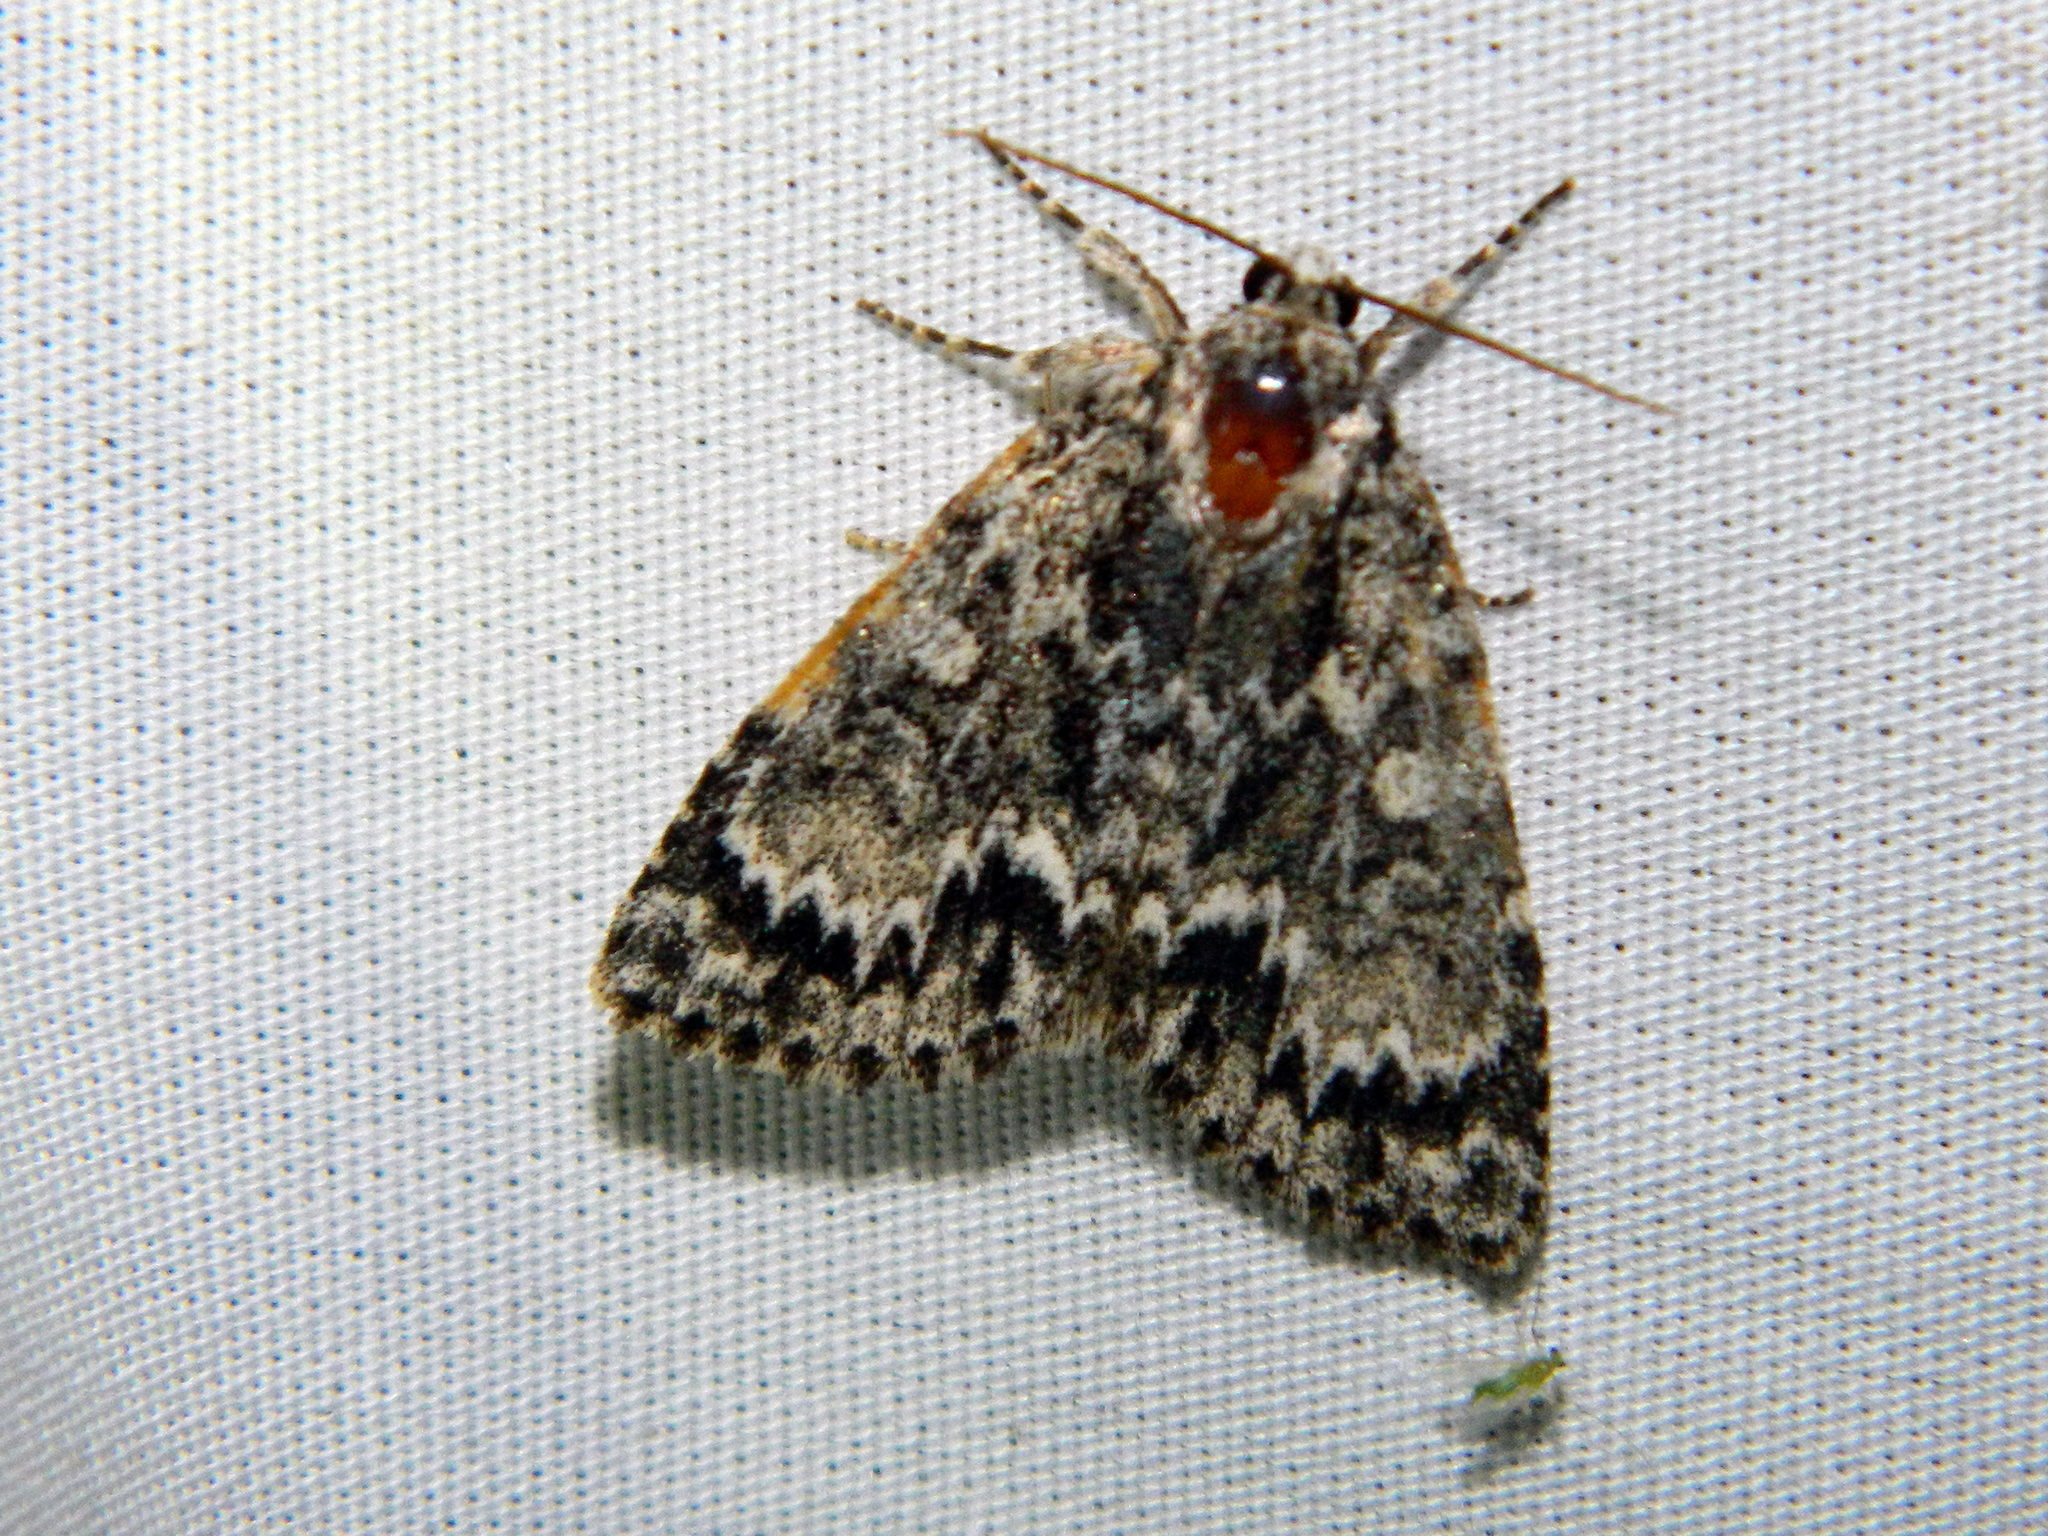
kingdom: Animalia
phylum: Arthropoda
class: Insecta
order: Lepidoptera
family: Noctuidae
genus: Acronicta
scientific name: Acronicta fragilis
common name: Fragile dagger
